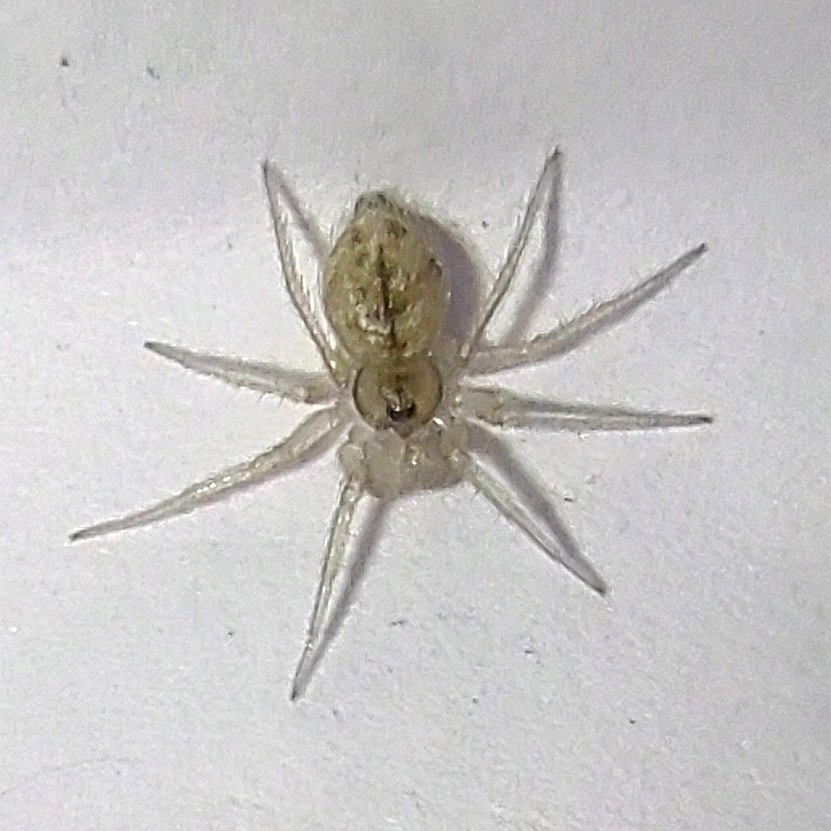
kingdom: Animalia
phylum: Arthropoda
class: Arachnida
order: Araneae
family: Oecobiidae
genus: Oecobius
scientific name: Oecobius navus
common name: Flatmesh weaver
